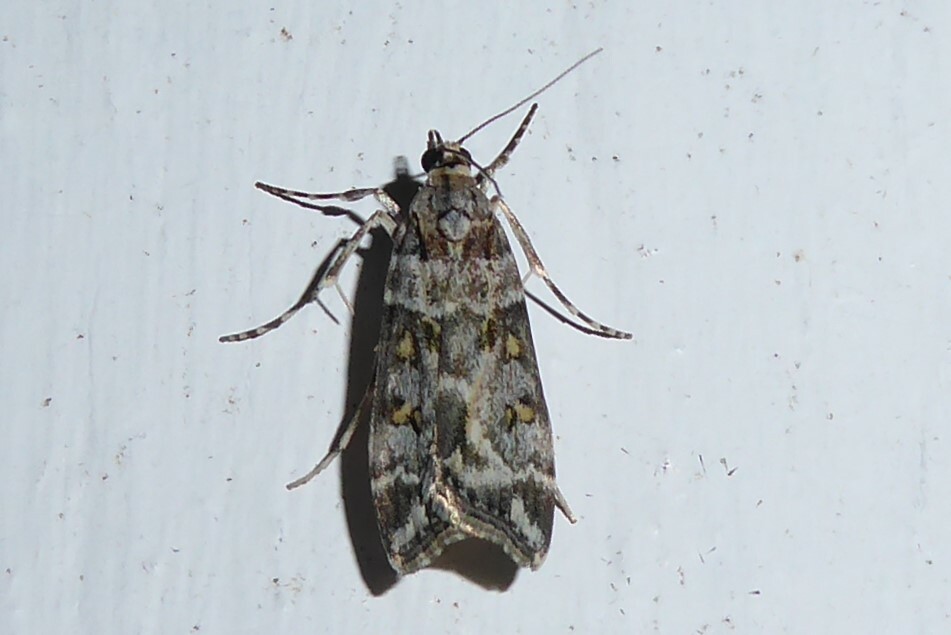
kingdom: Animalia
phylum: Arthropoda
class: Insecta
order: Lepidoptera
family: Crambidae
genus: Scoparia
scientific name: Scoparia tetracycla
